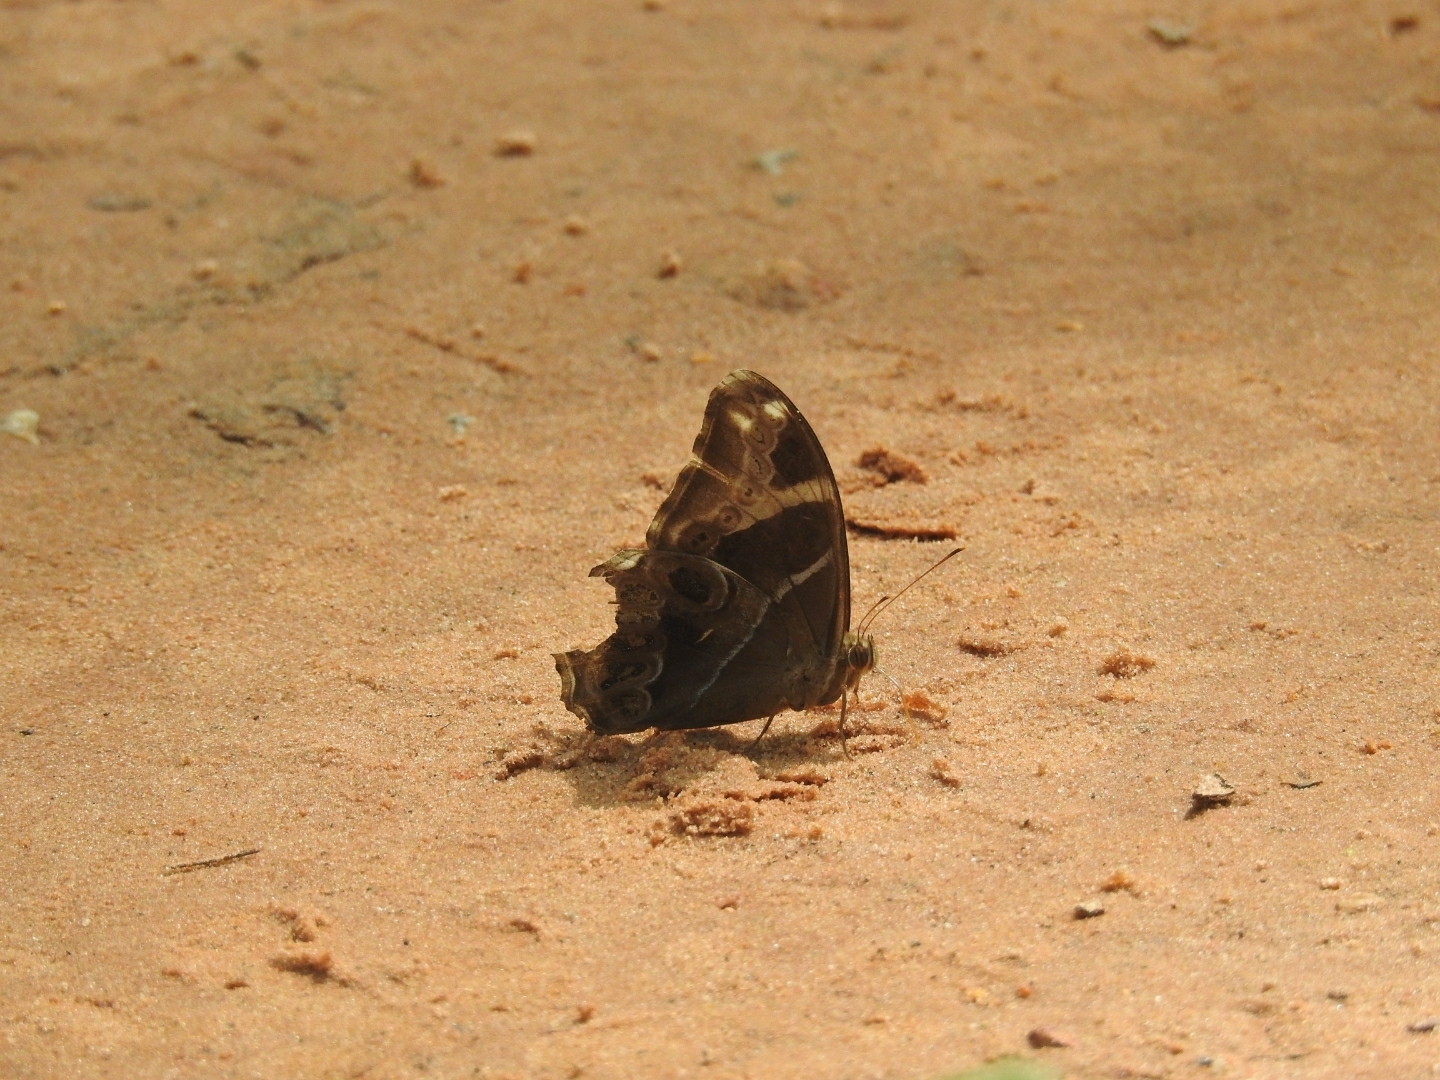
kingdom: Animalia
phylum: Arthropoda
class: Insecta
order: Lepidoptera
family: Nymphalidae
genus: Lethe
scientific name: Lethe europa
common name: Bamboo treebrown
